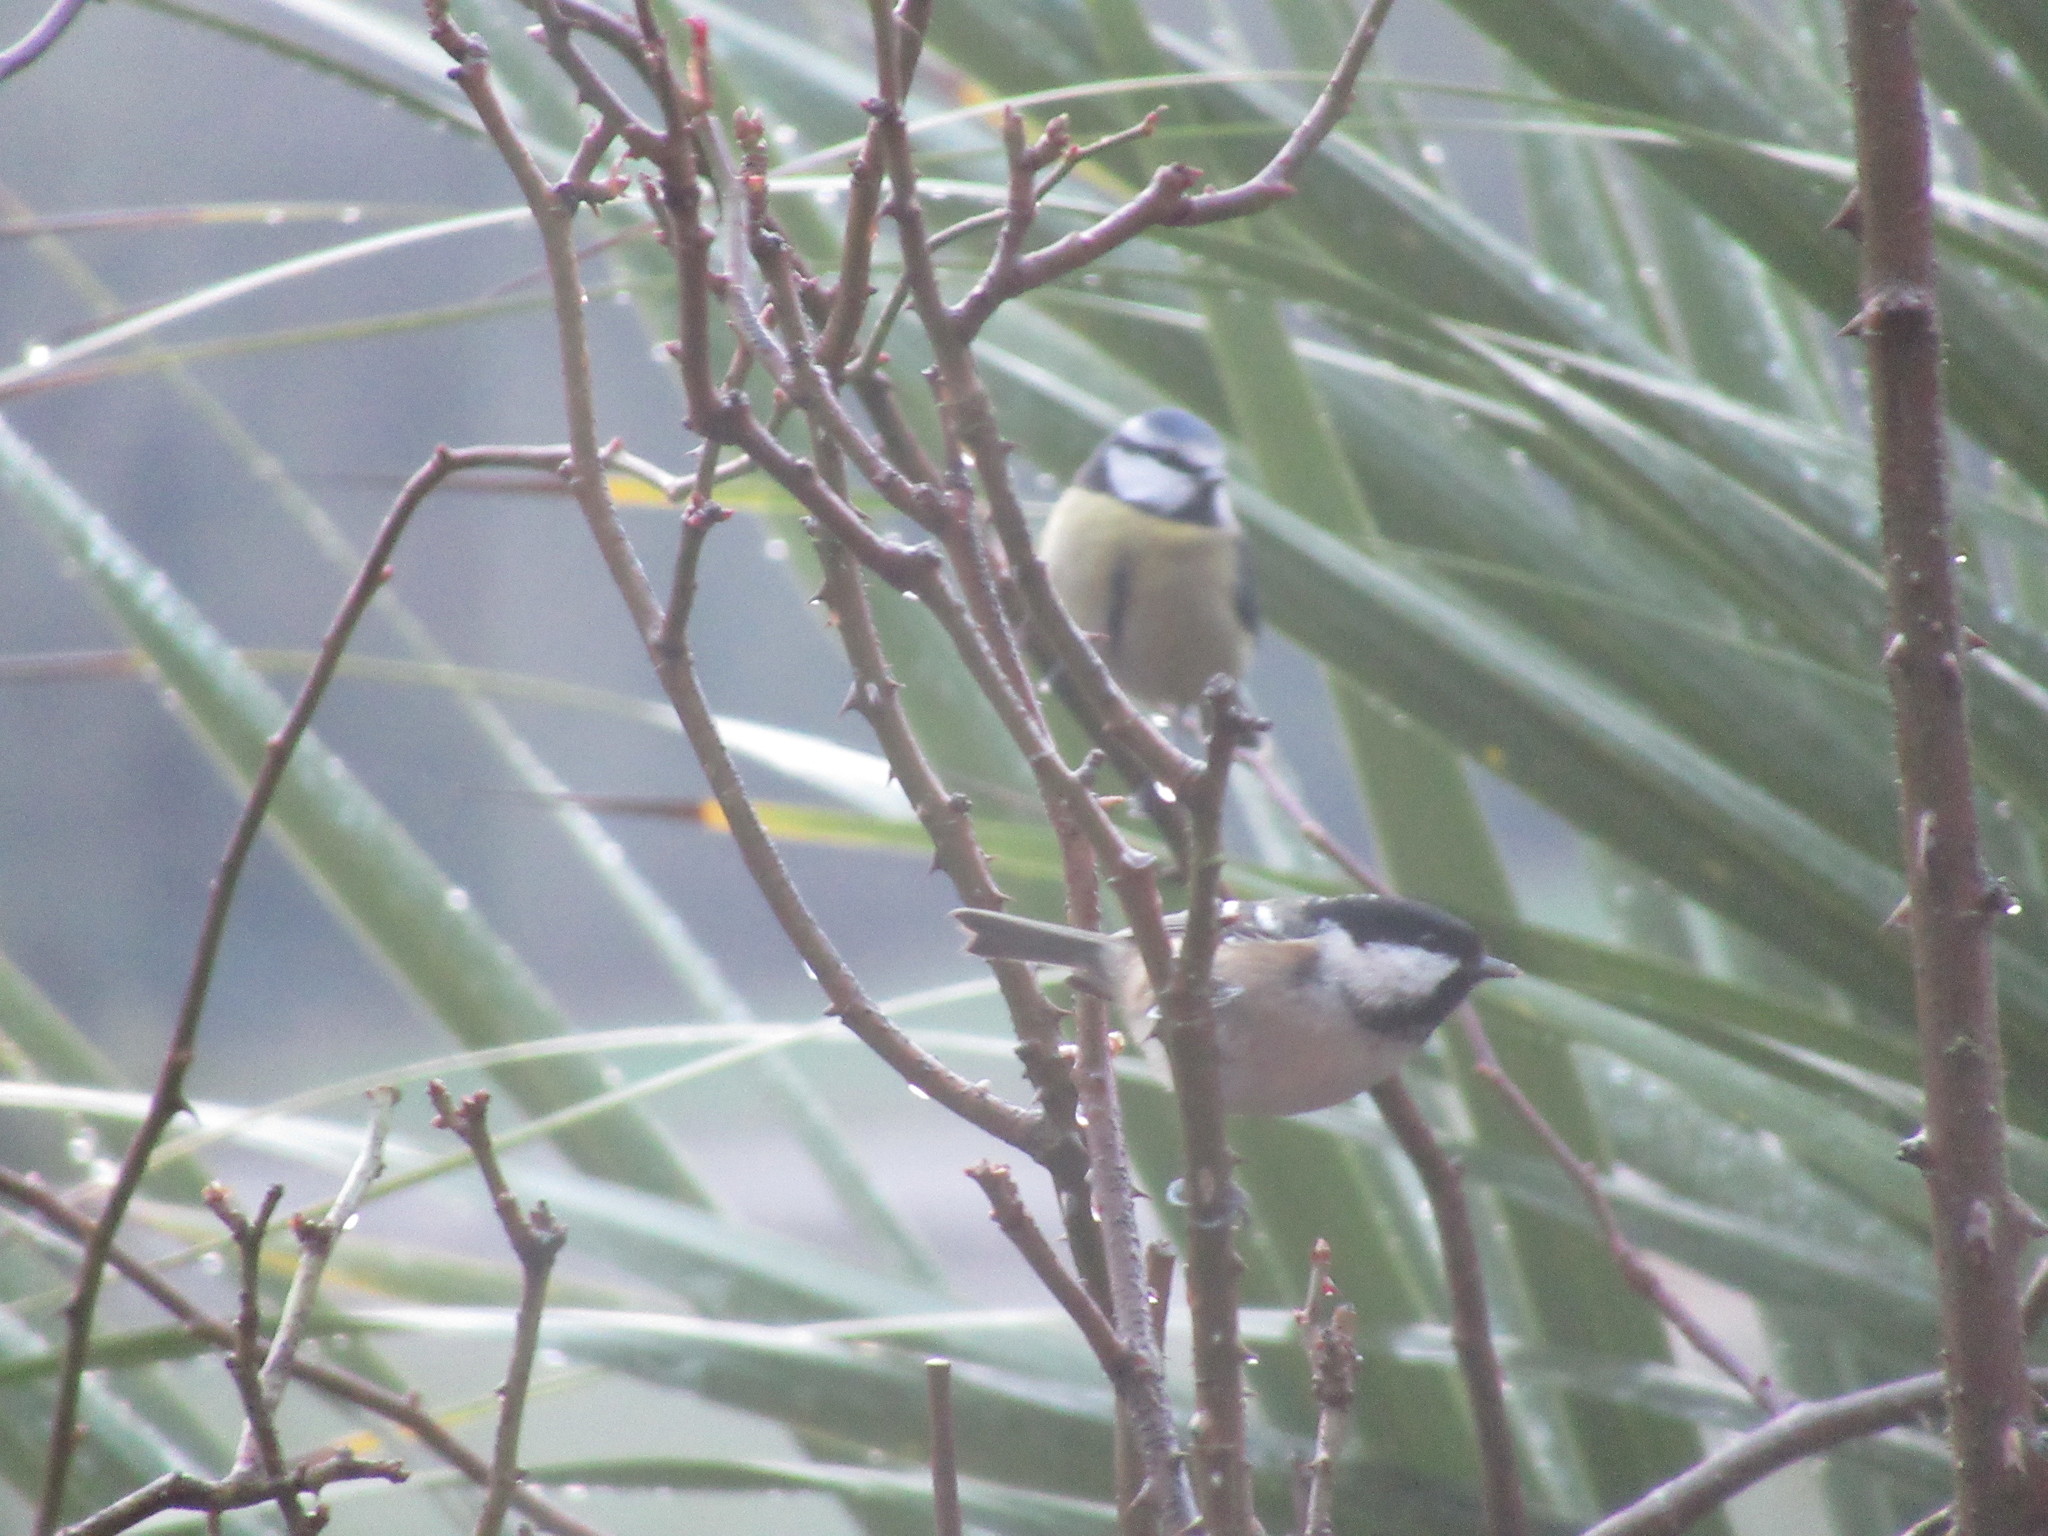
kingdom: Animalia
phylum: Chordata
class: Aves
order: Passeriformes
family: Paridae
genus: Periparus
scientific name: Periparus ater
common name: Coal tit
